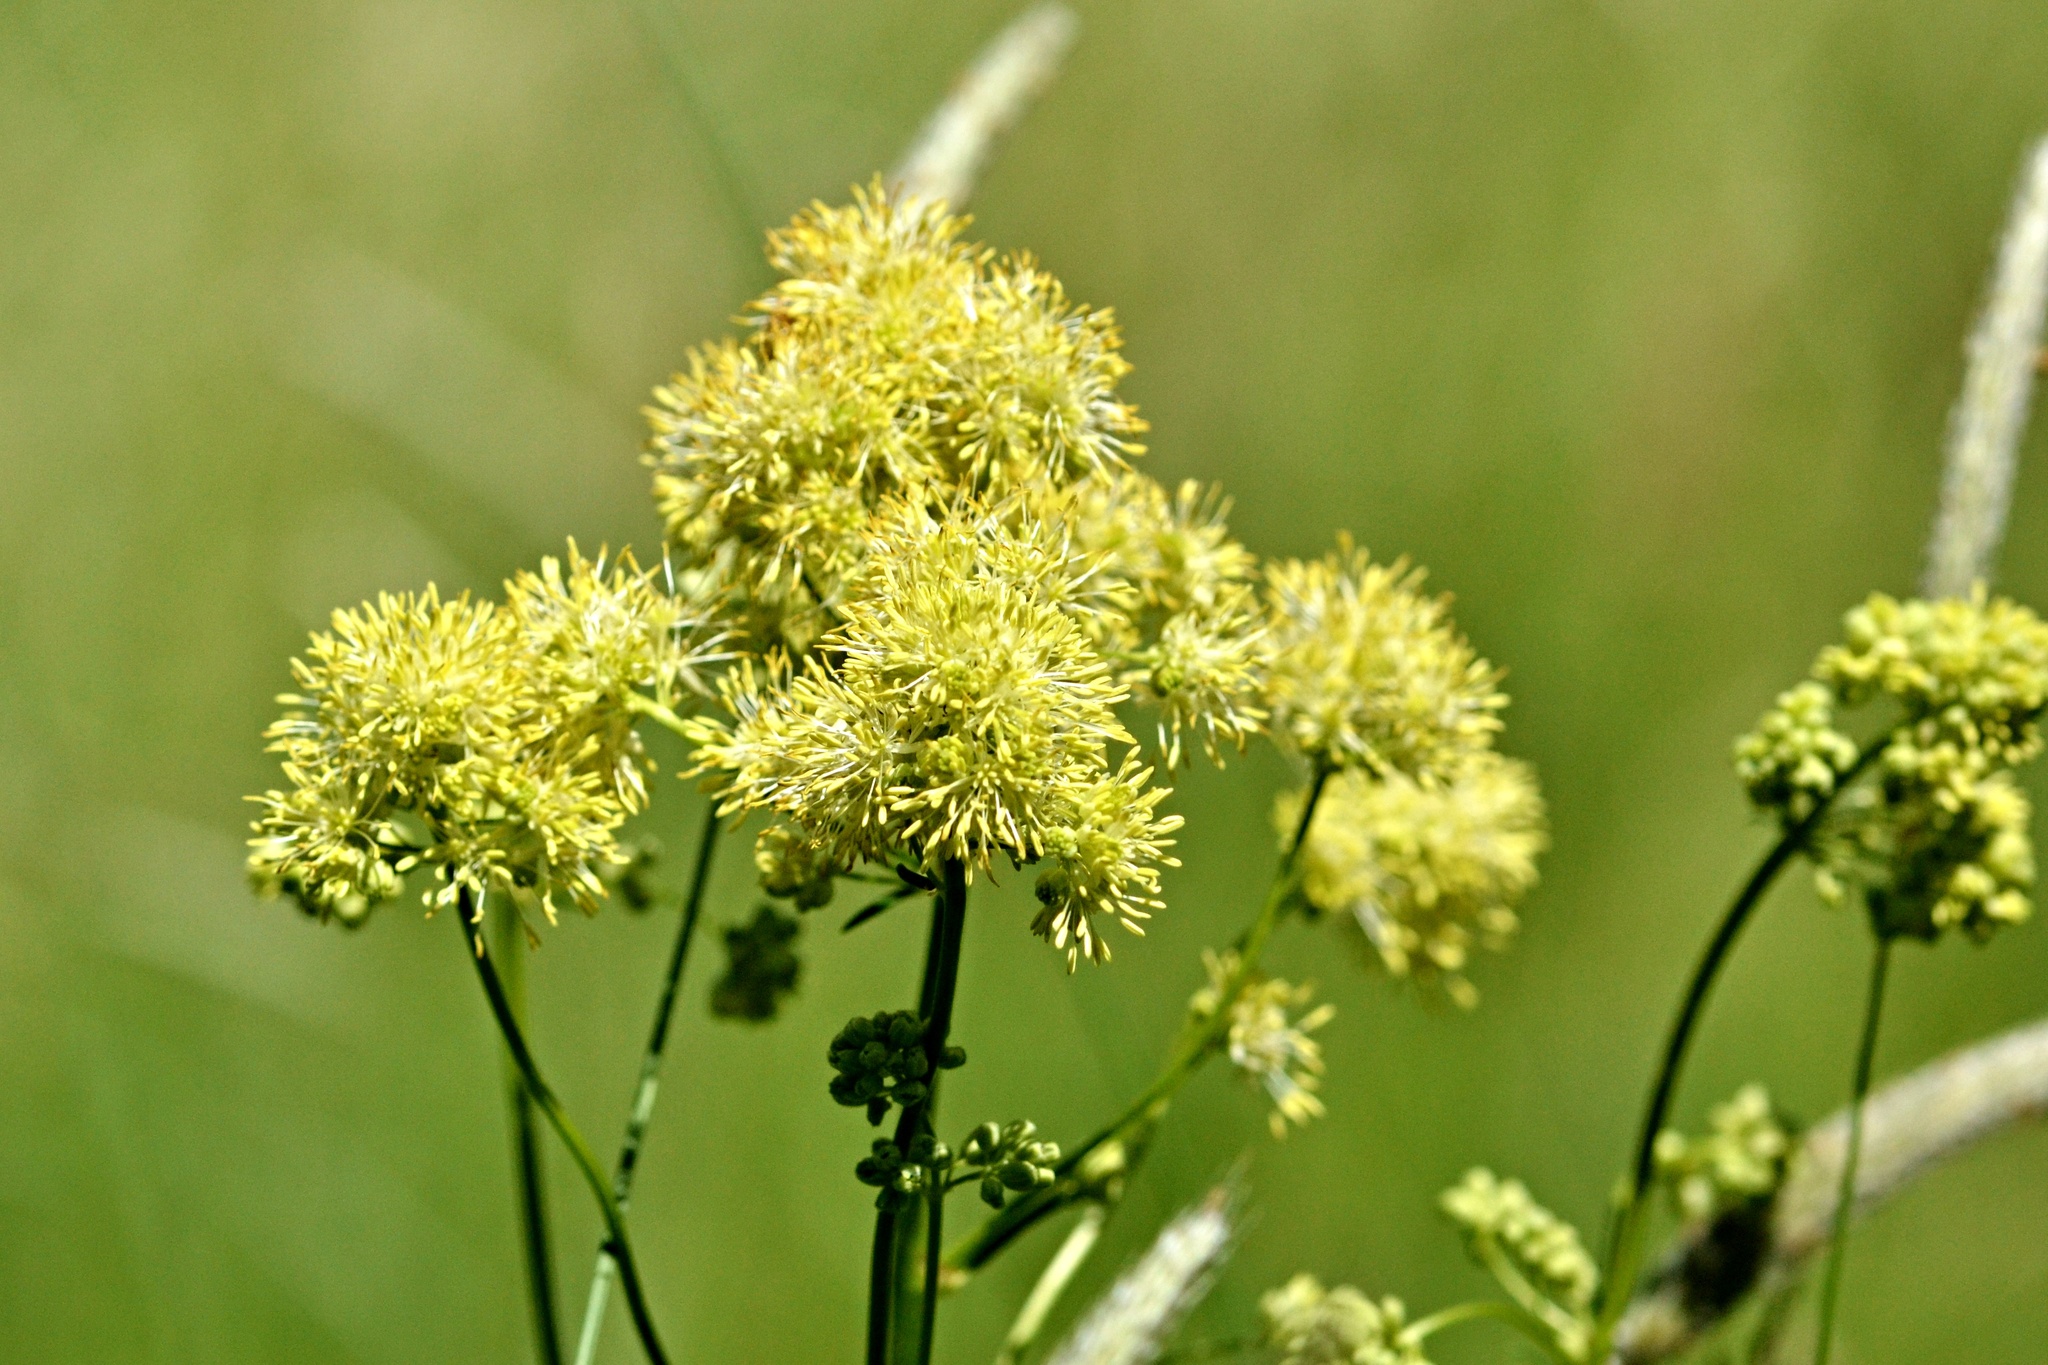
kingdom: Plantae
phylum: Tracheophyta
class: Magnoliopsida
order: Ranunculales
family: Ranunculaceae
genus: Thalictrum
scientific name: Thalictrum lucidum
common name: Shining meadow-rue
